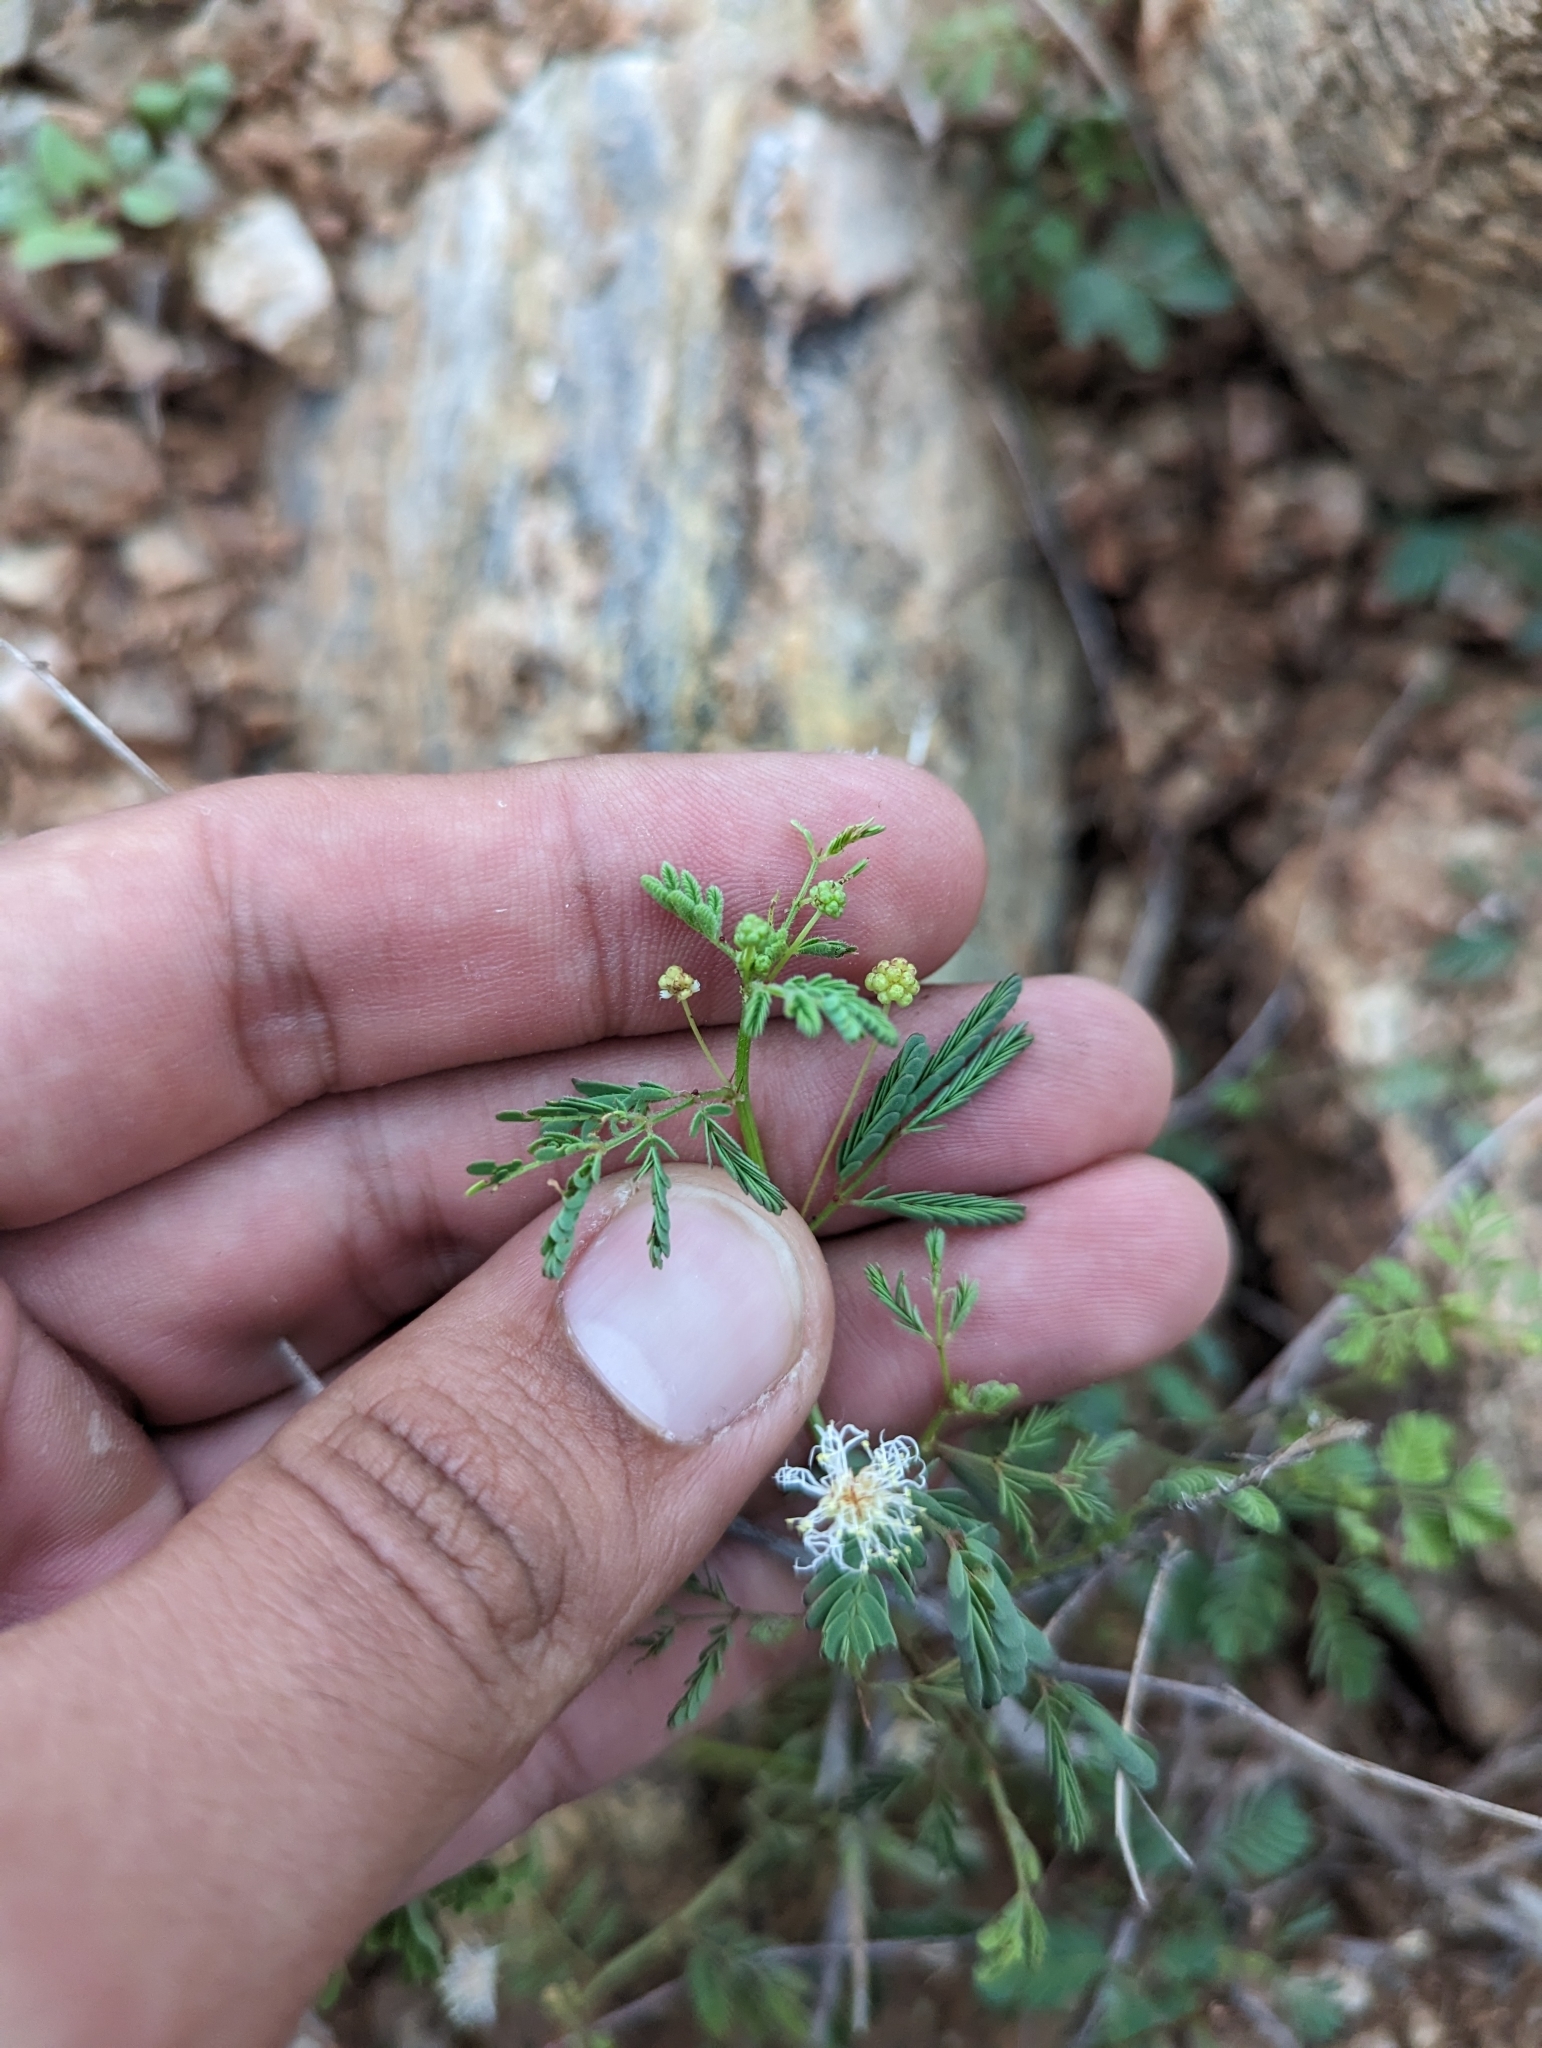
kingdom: Plantae
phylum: Tracheophyta
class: Magnoliopsida
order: Fabales
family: Fabaceae
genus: Desmanthus
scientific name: Desmanthus oligospermus
